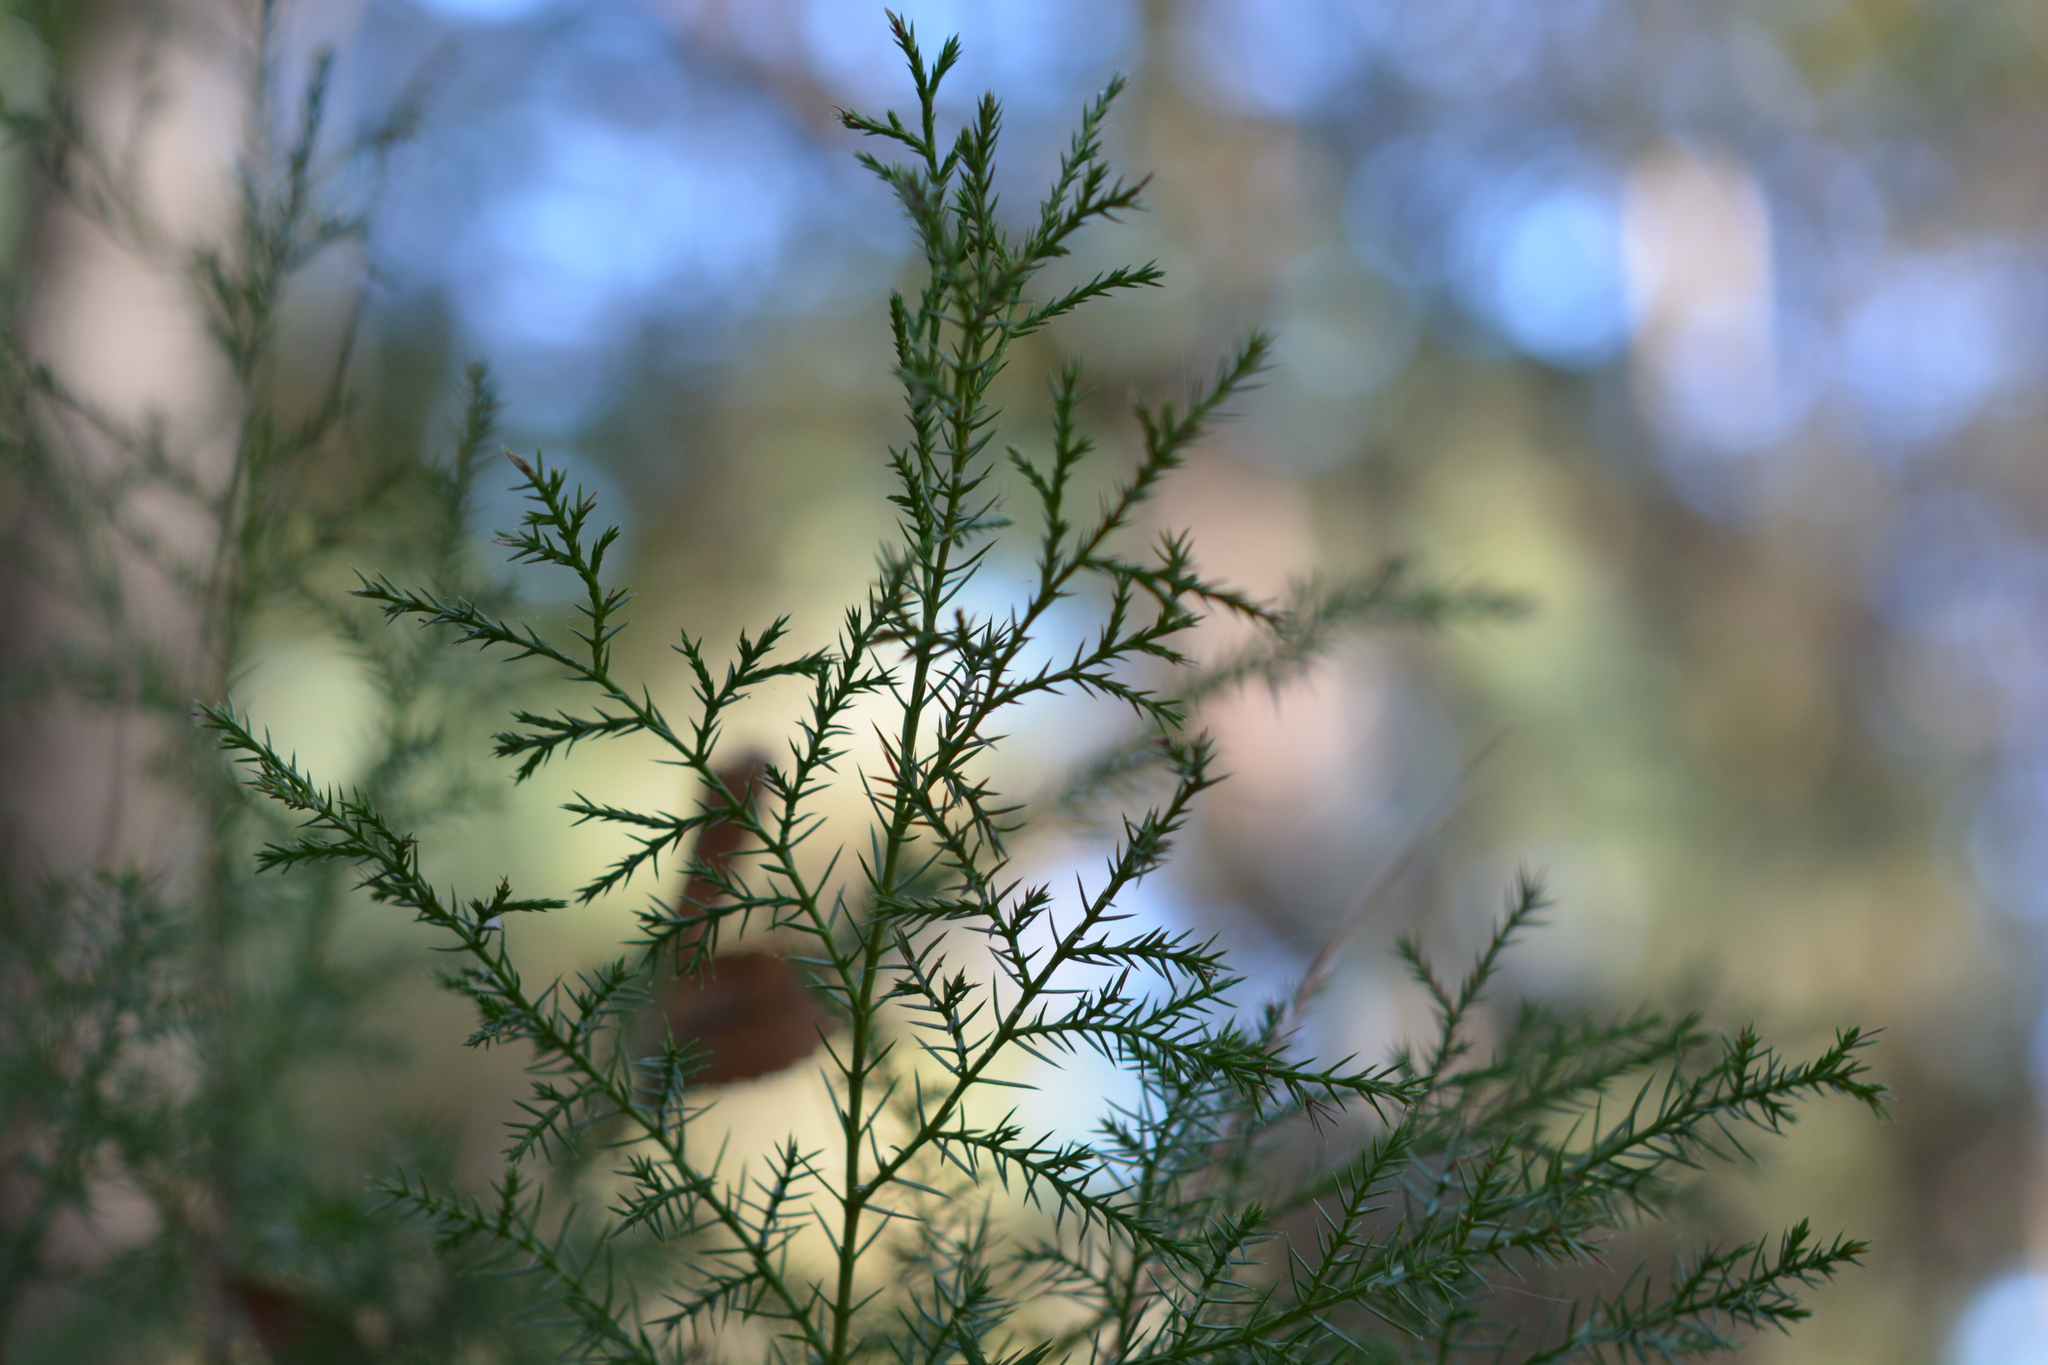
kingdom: Plantae
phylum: Tracheophyta
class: Pinopsida
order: Pinales
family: Cupressaceae
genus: Juniperus
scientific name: Juniperus virginiana
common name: Red juniper
